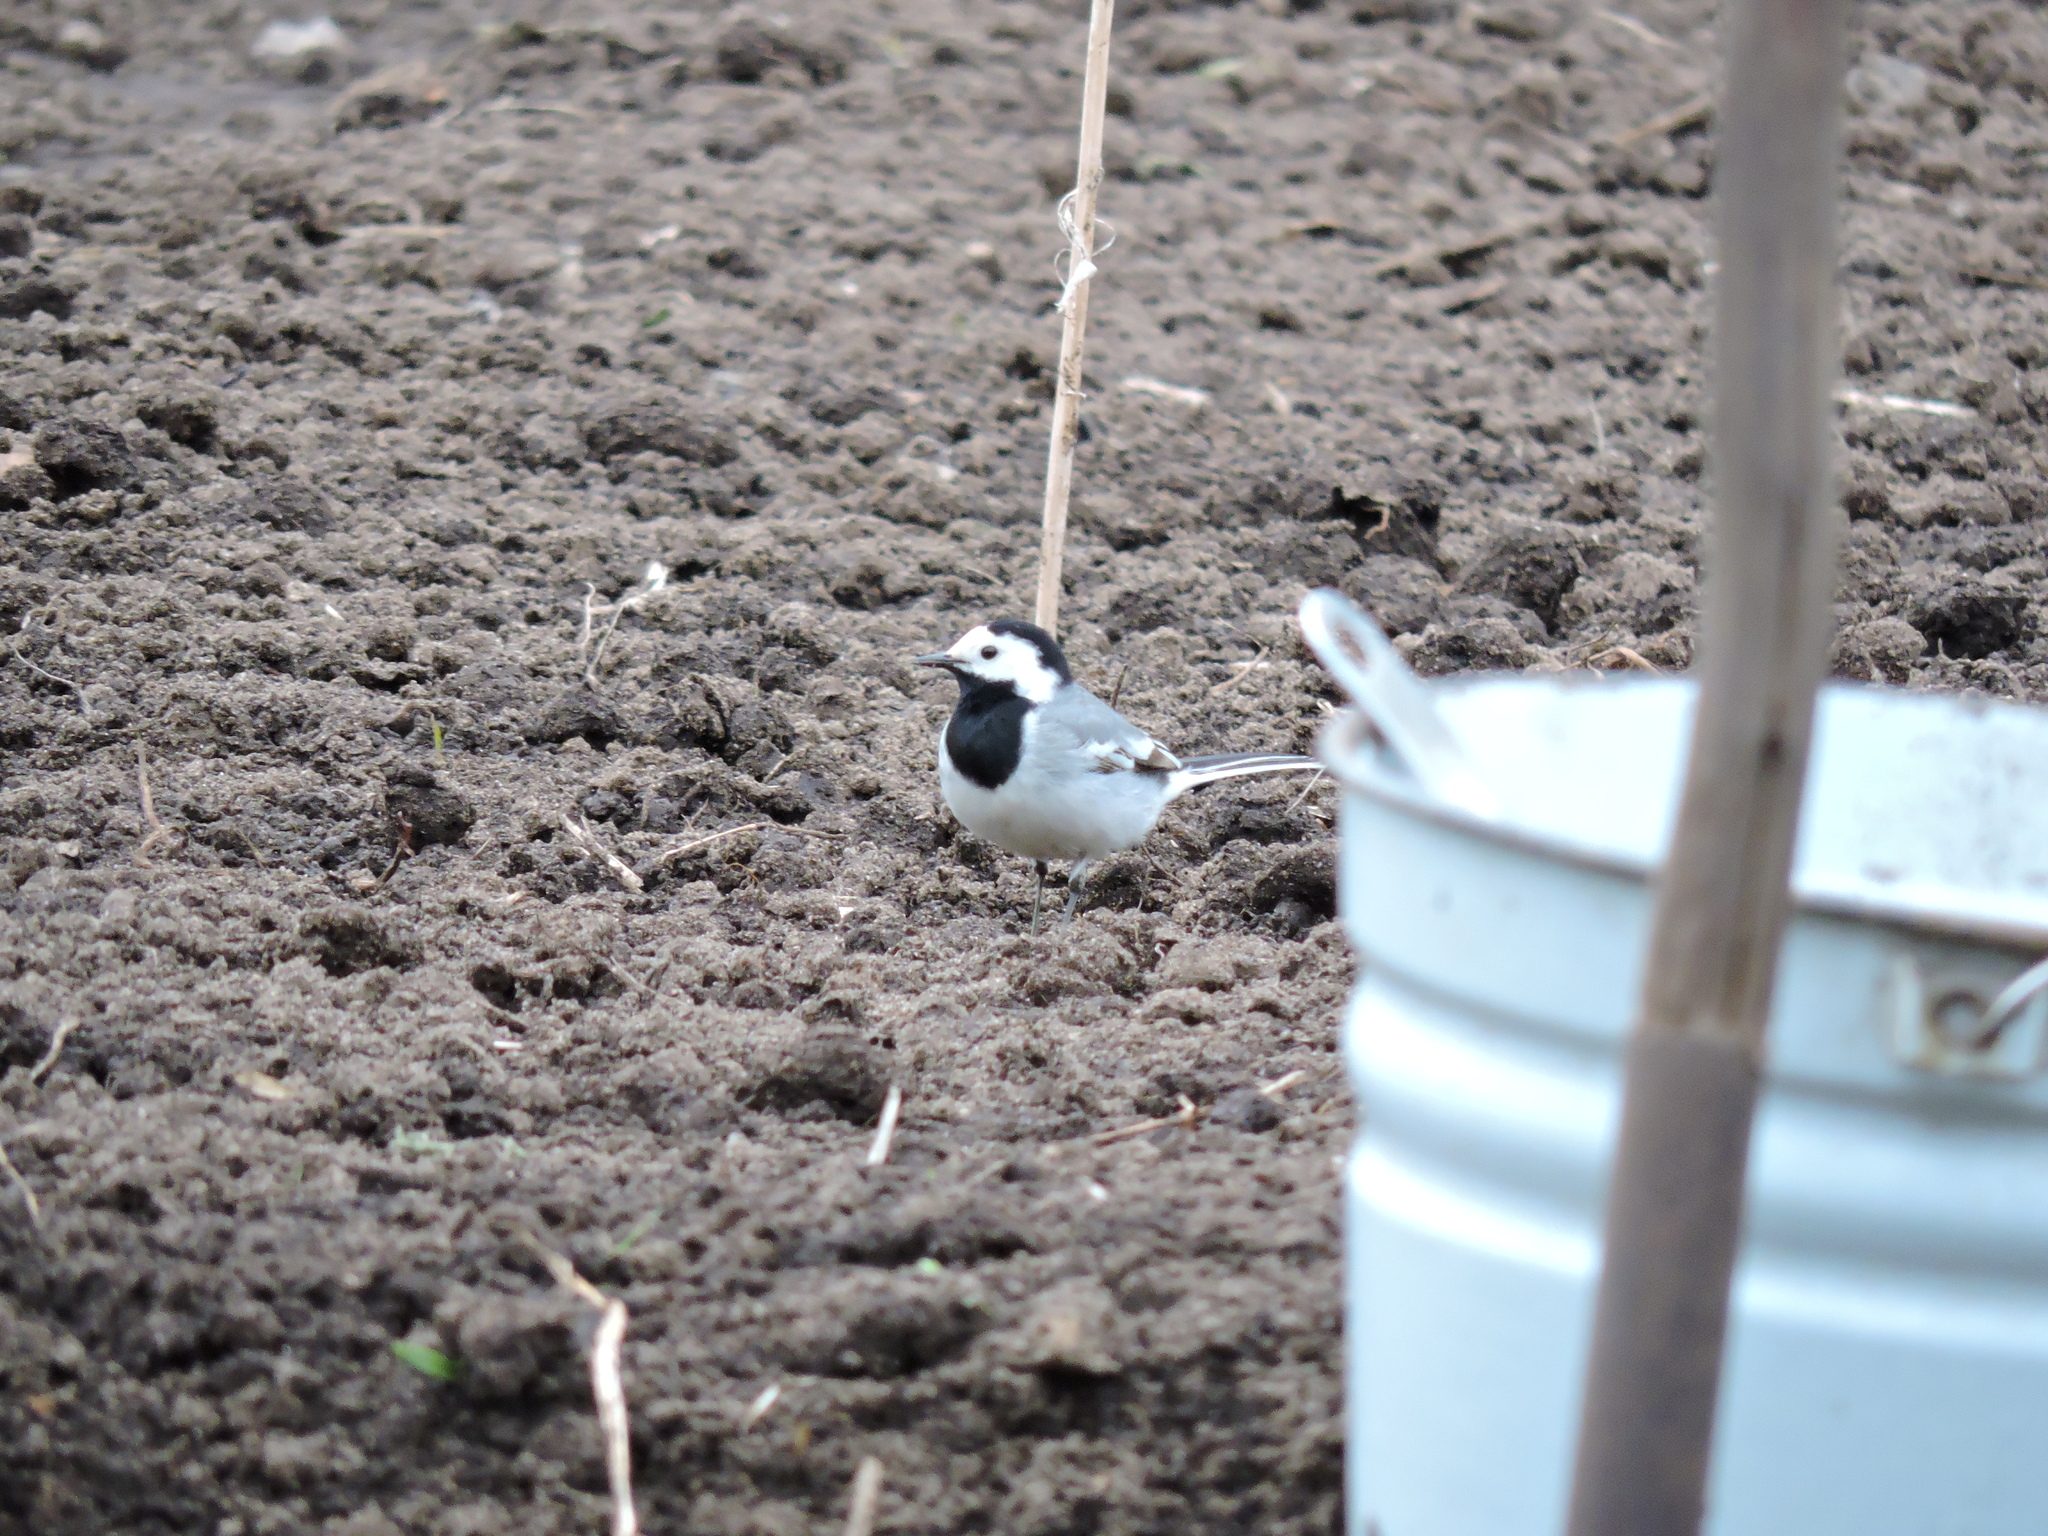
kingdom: Animalia
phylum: Chordata
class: Aves
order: Passeriformes
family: Motacillidae
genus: Motacilla
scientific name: Motacilla alba
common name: White wagtail
